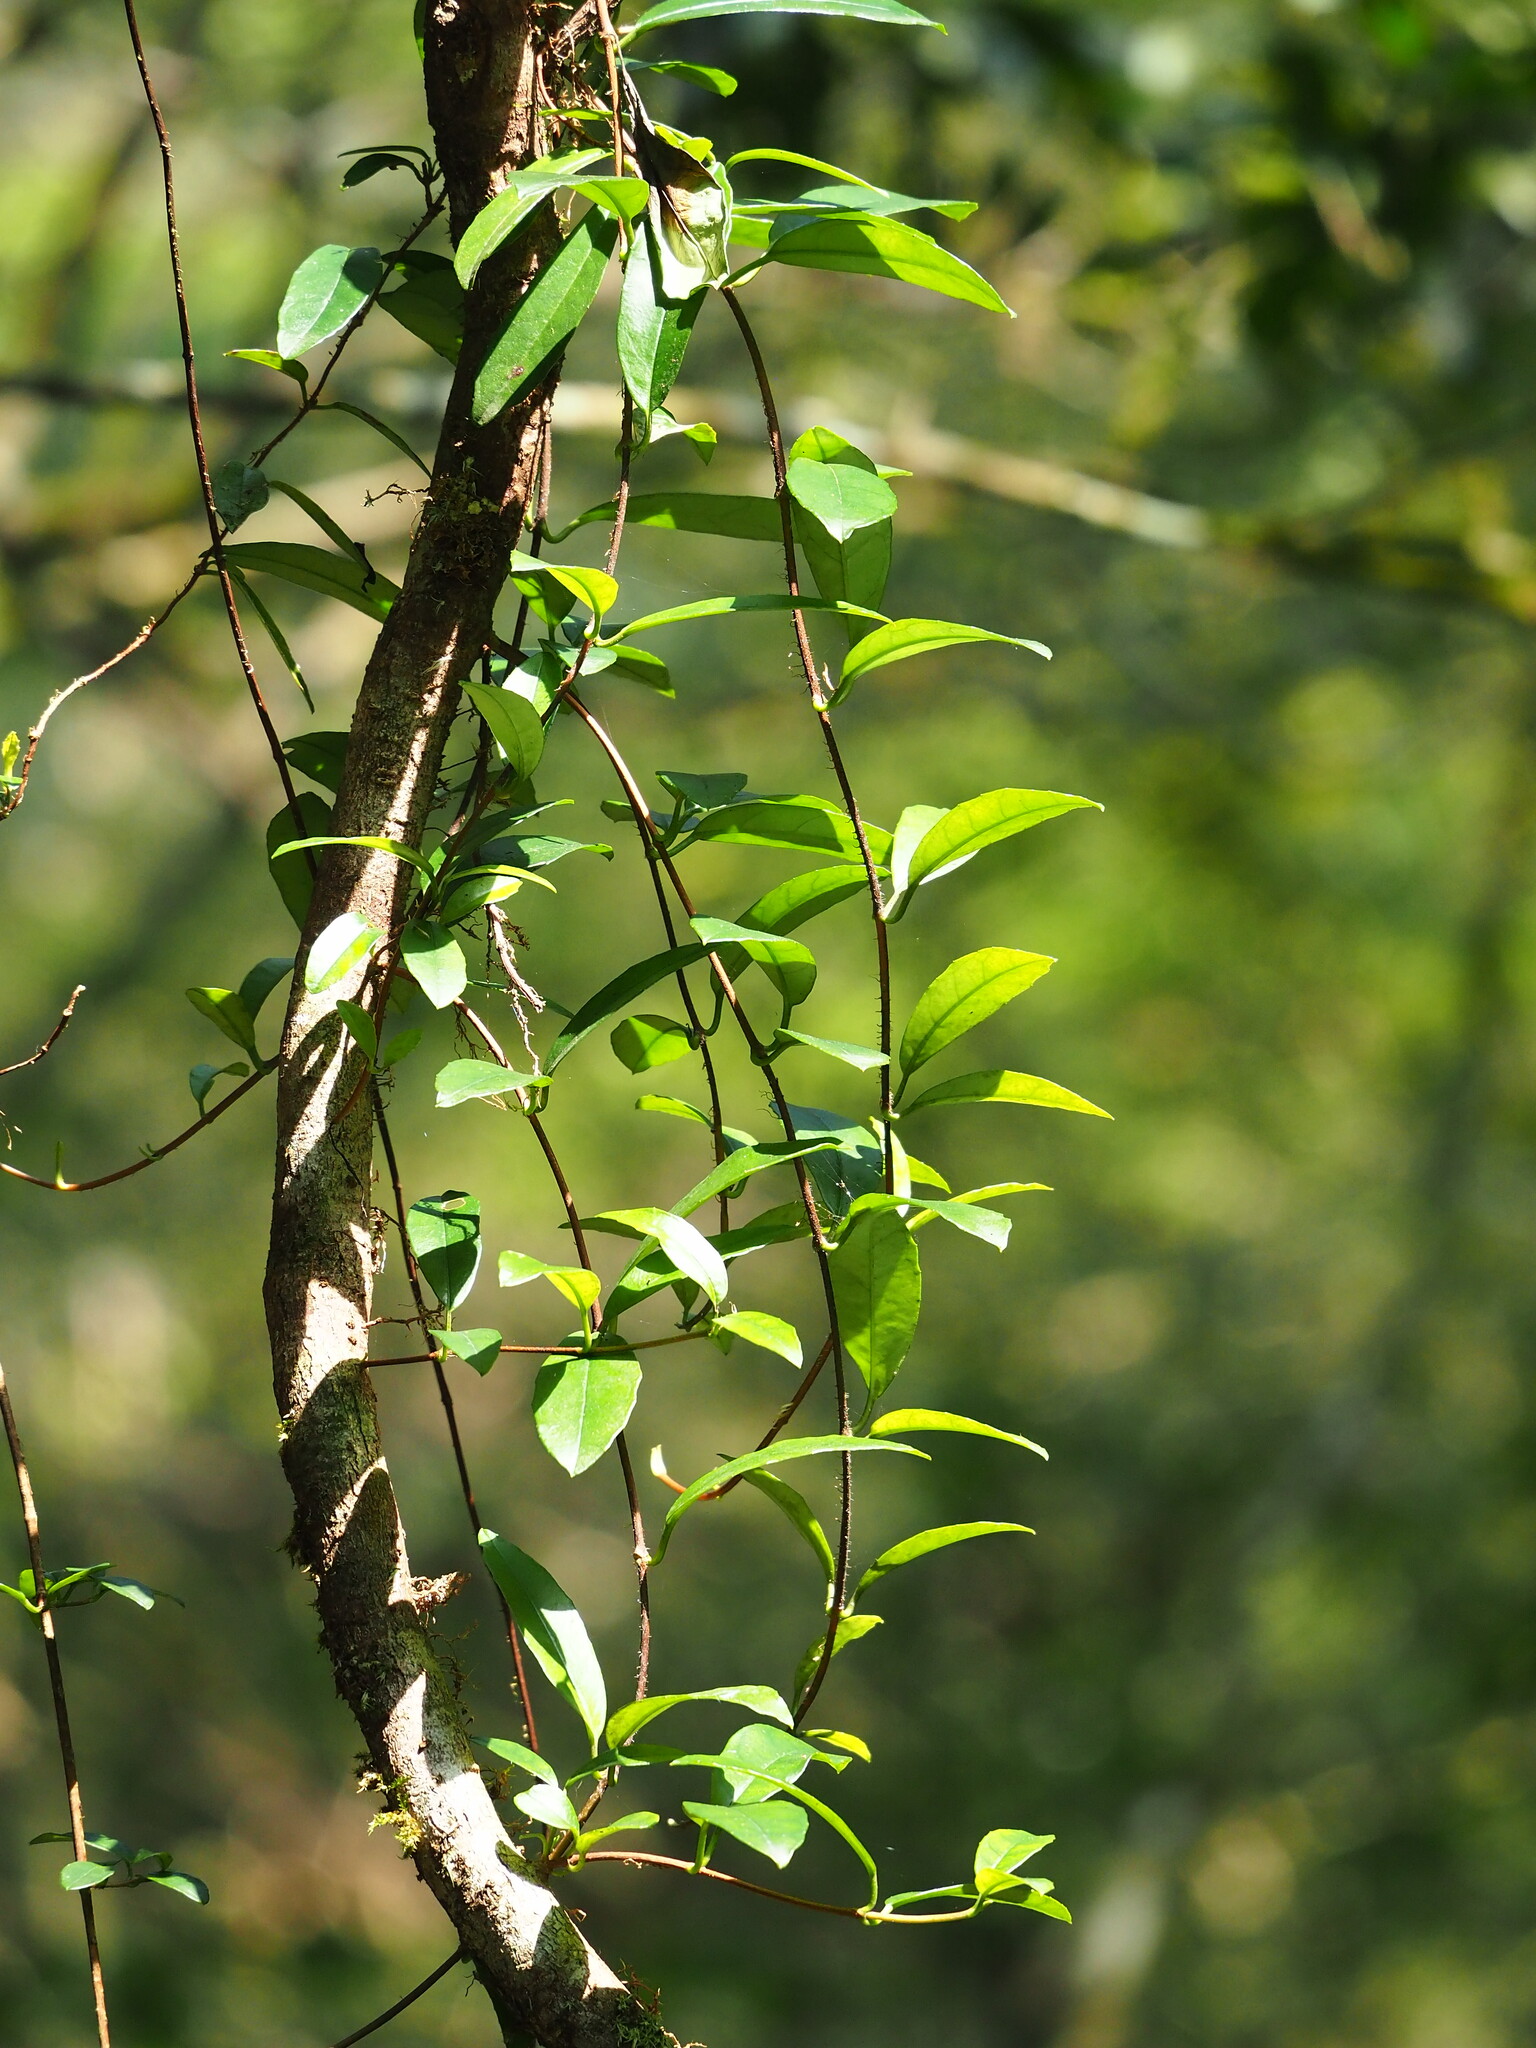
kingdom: Plantae
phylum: Tracheophyta
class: Magnoliopsida
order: Cornales
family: Hydrangeaceae
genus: Hydrangea
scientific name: Hydrangea viburnoides
